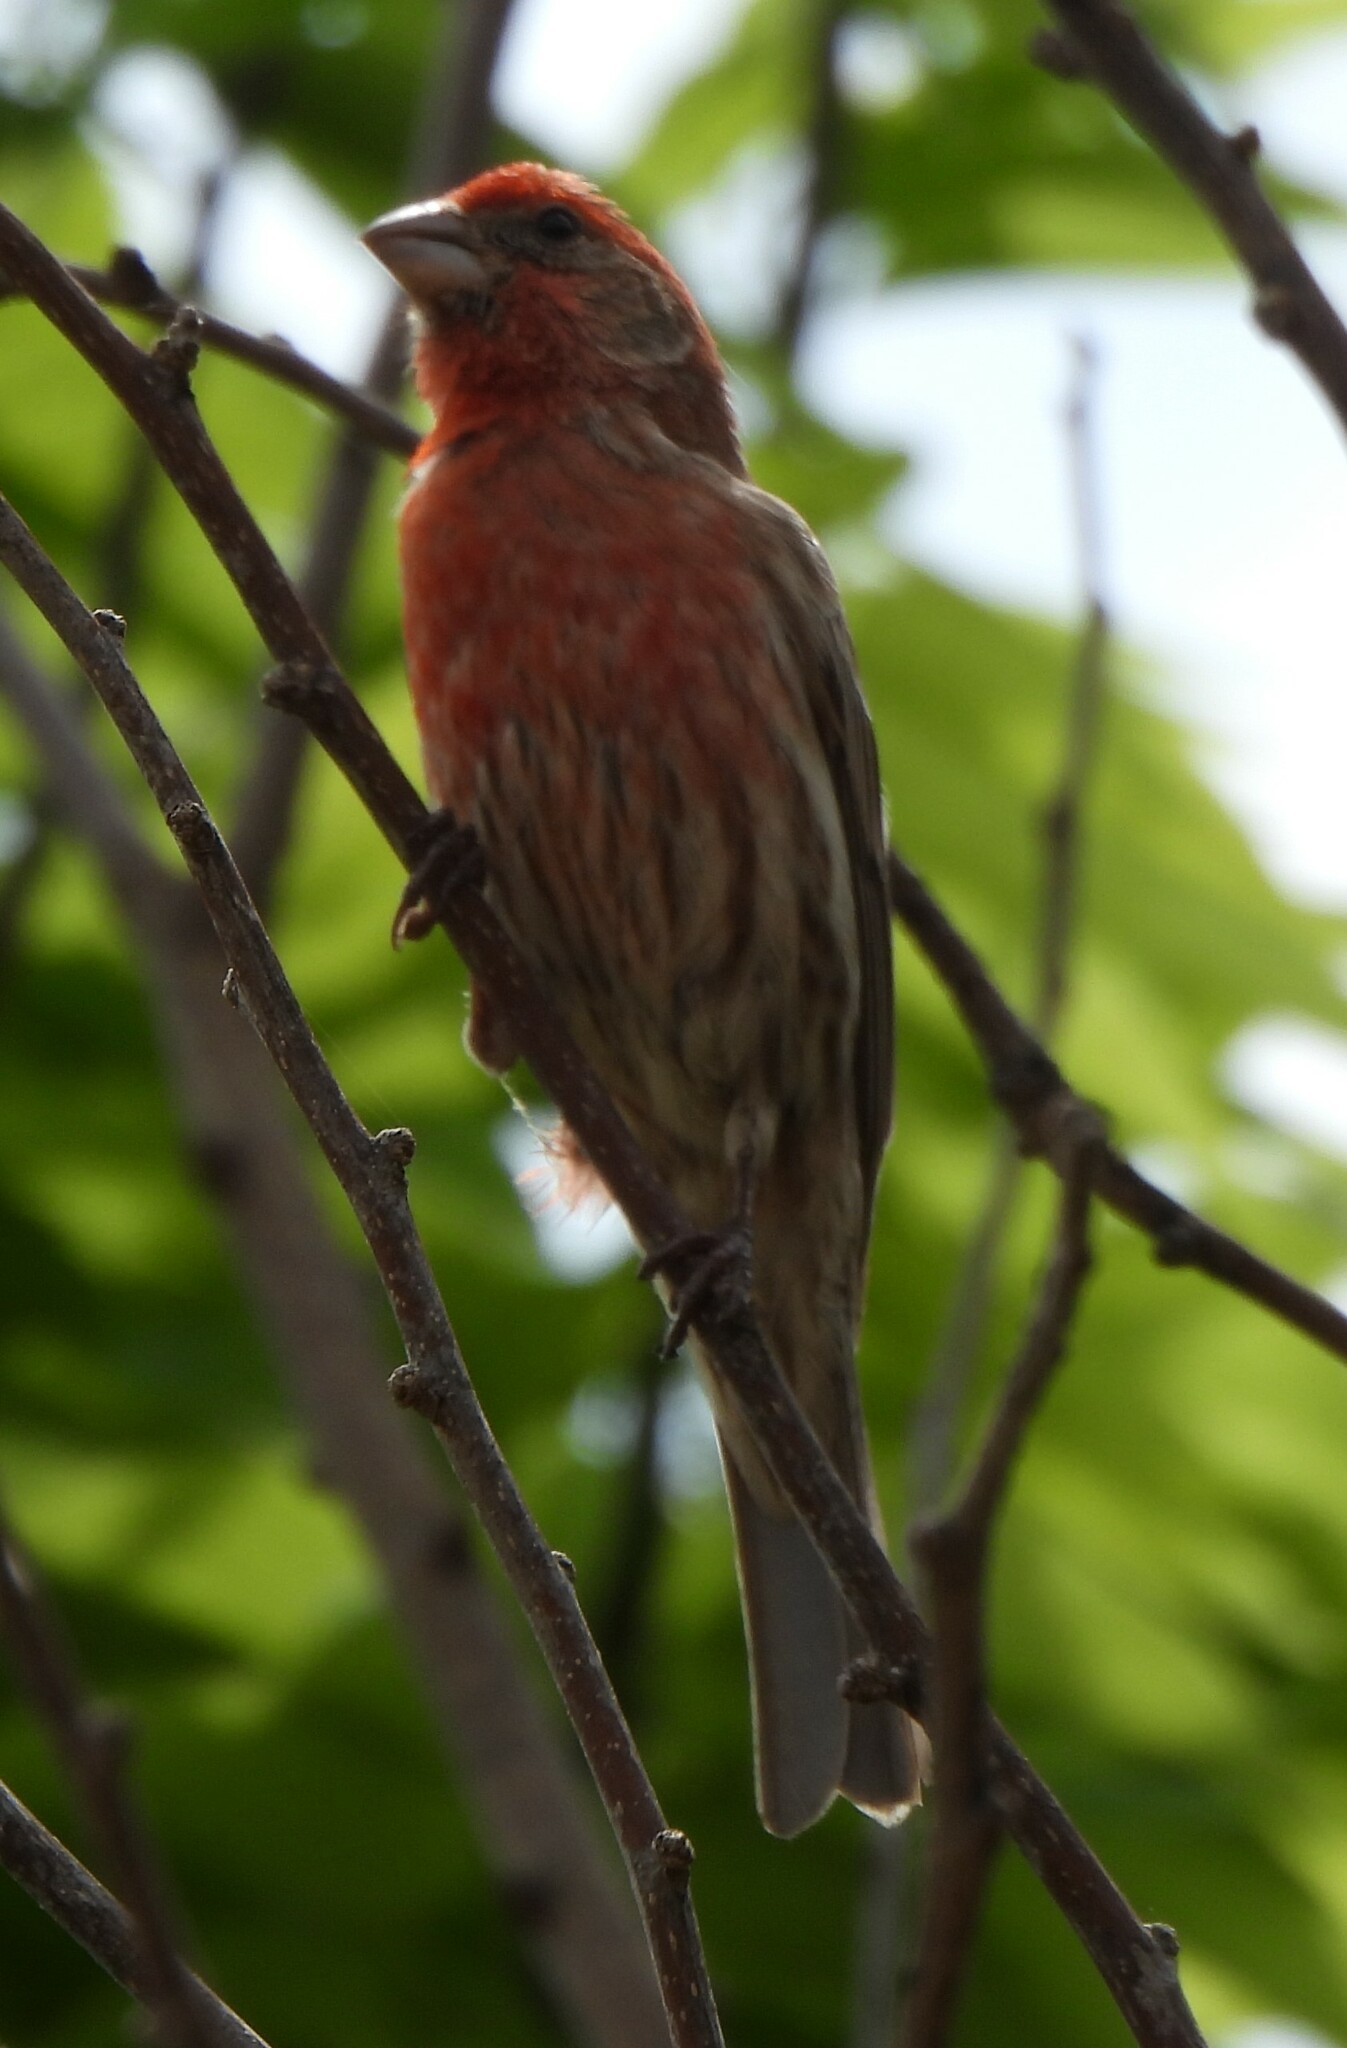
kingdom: Animalia
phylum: Chordata
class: Aves
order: Passeriformes
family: Fringillidae
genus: Haemorhous
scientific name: Haemorhous mexicanus
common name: House finch
